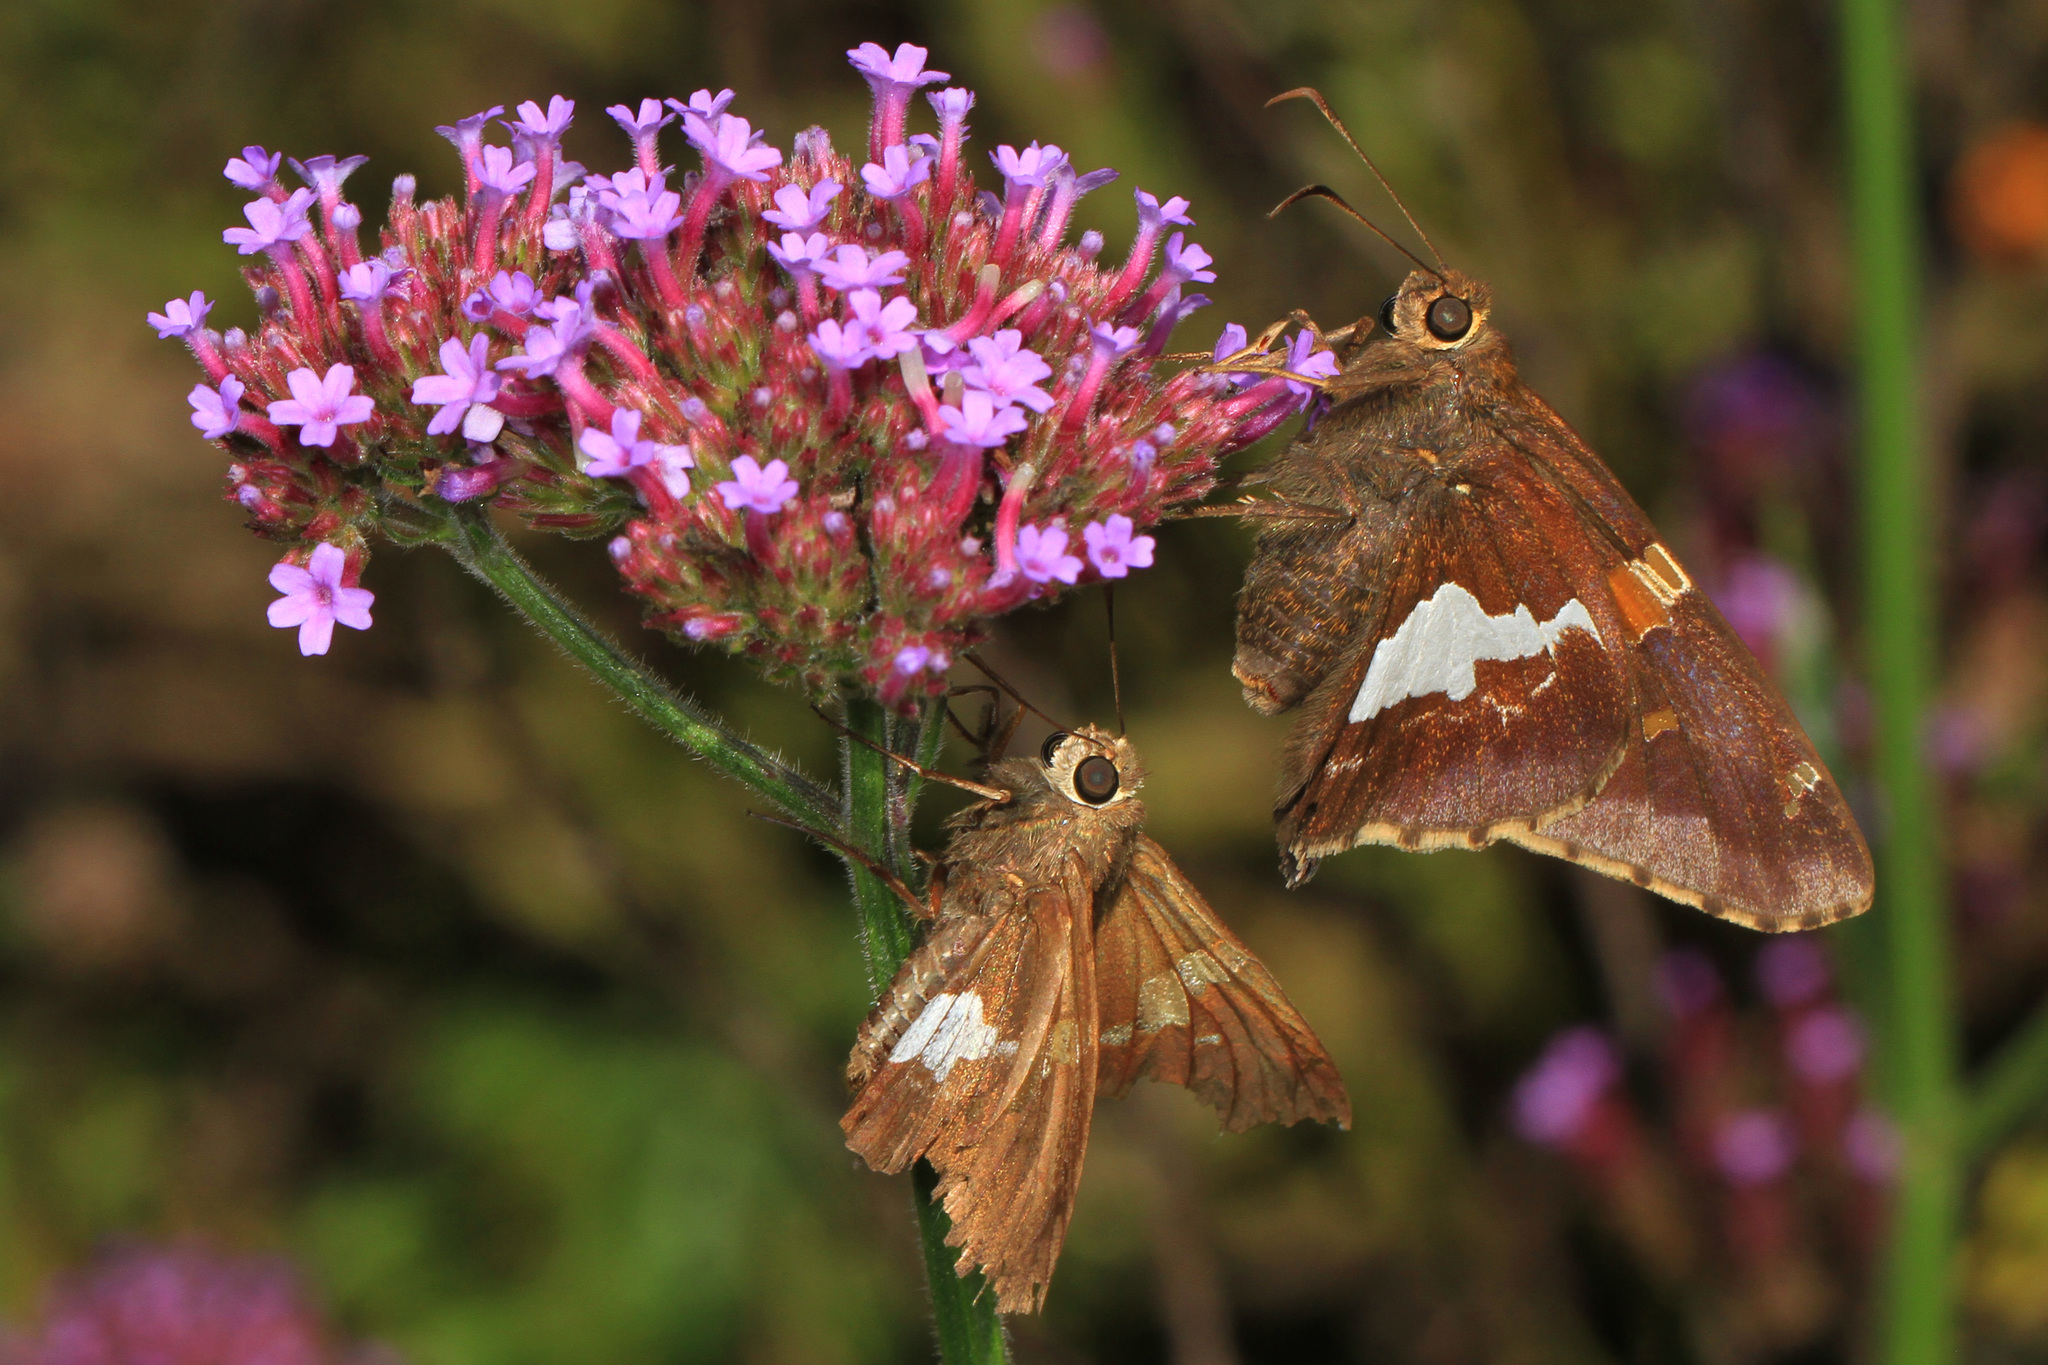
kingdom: Animalia
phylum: Arthropoda
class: Insecta
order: Lepidoptera
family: Hesperiidae
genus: Epargyreus
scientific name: Epargyreus clarus
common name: Silver-spotted skipper
